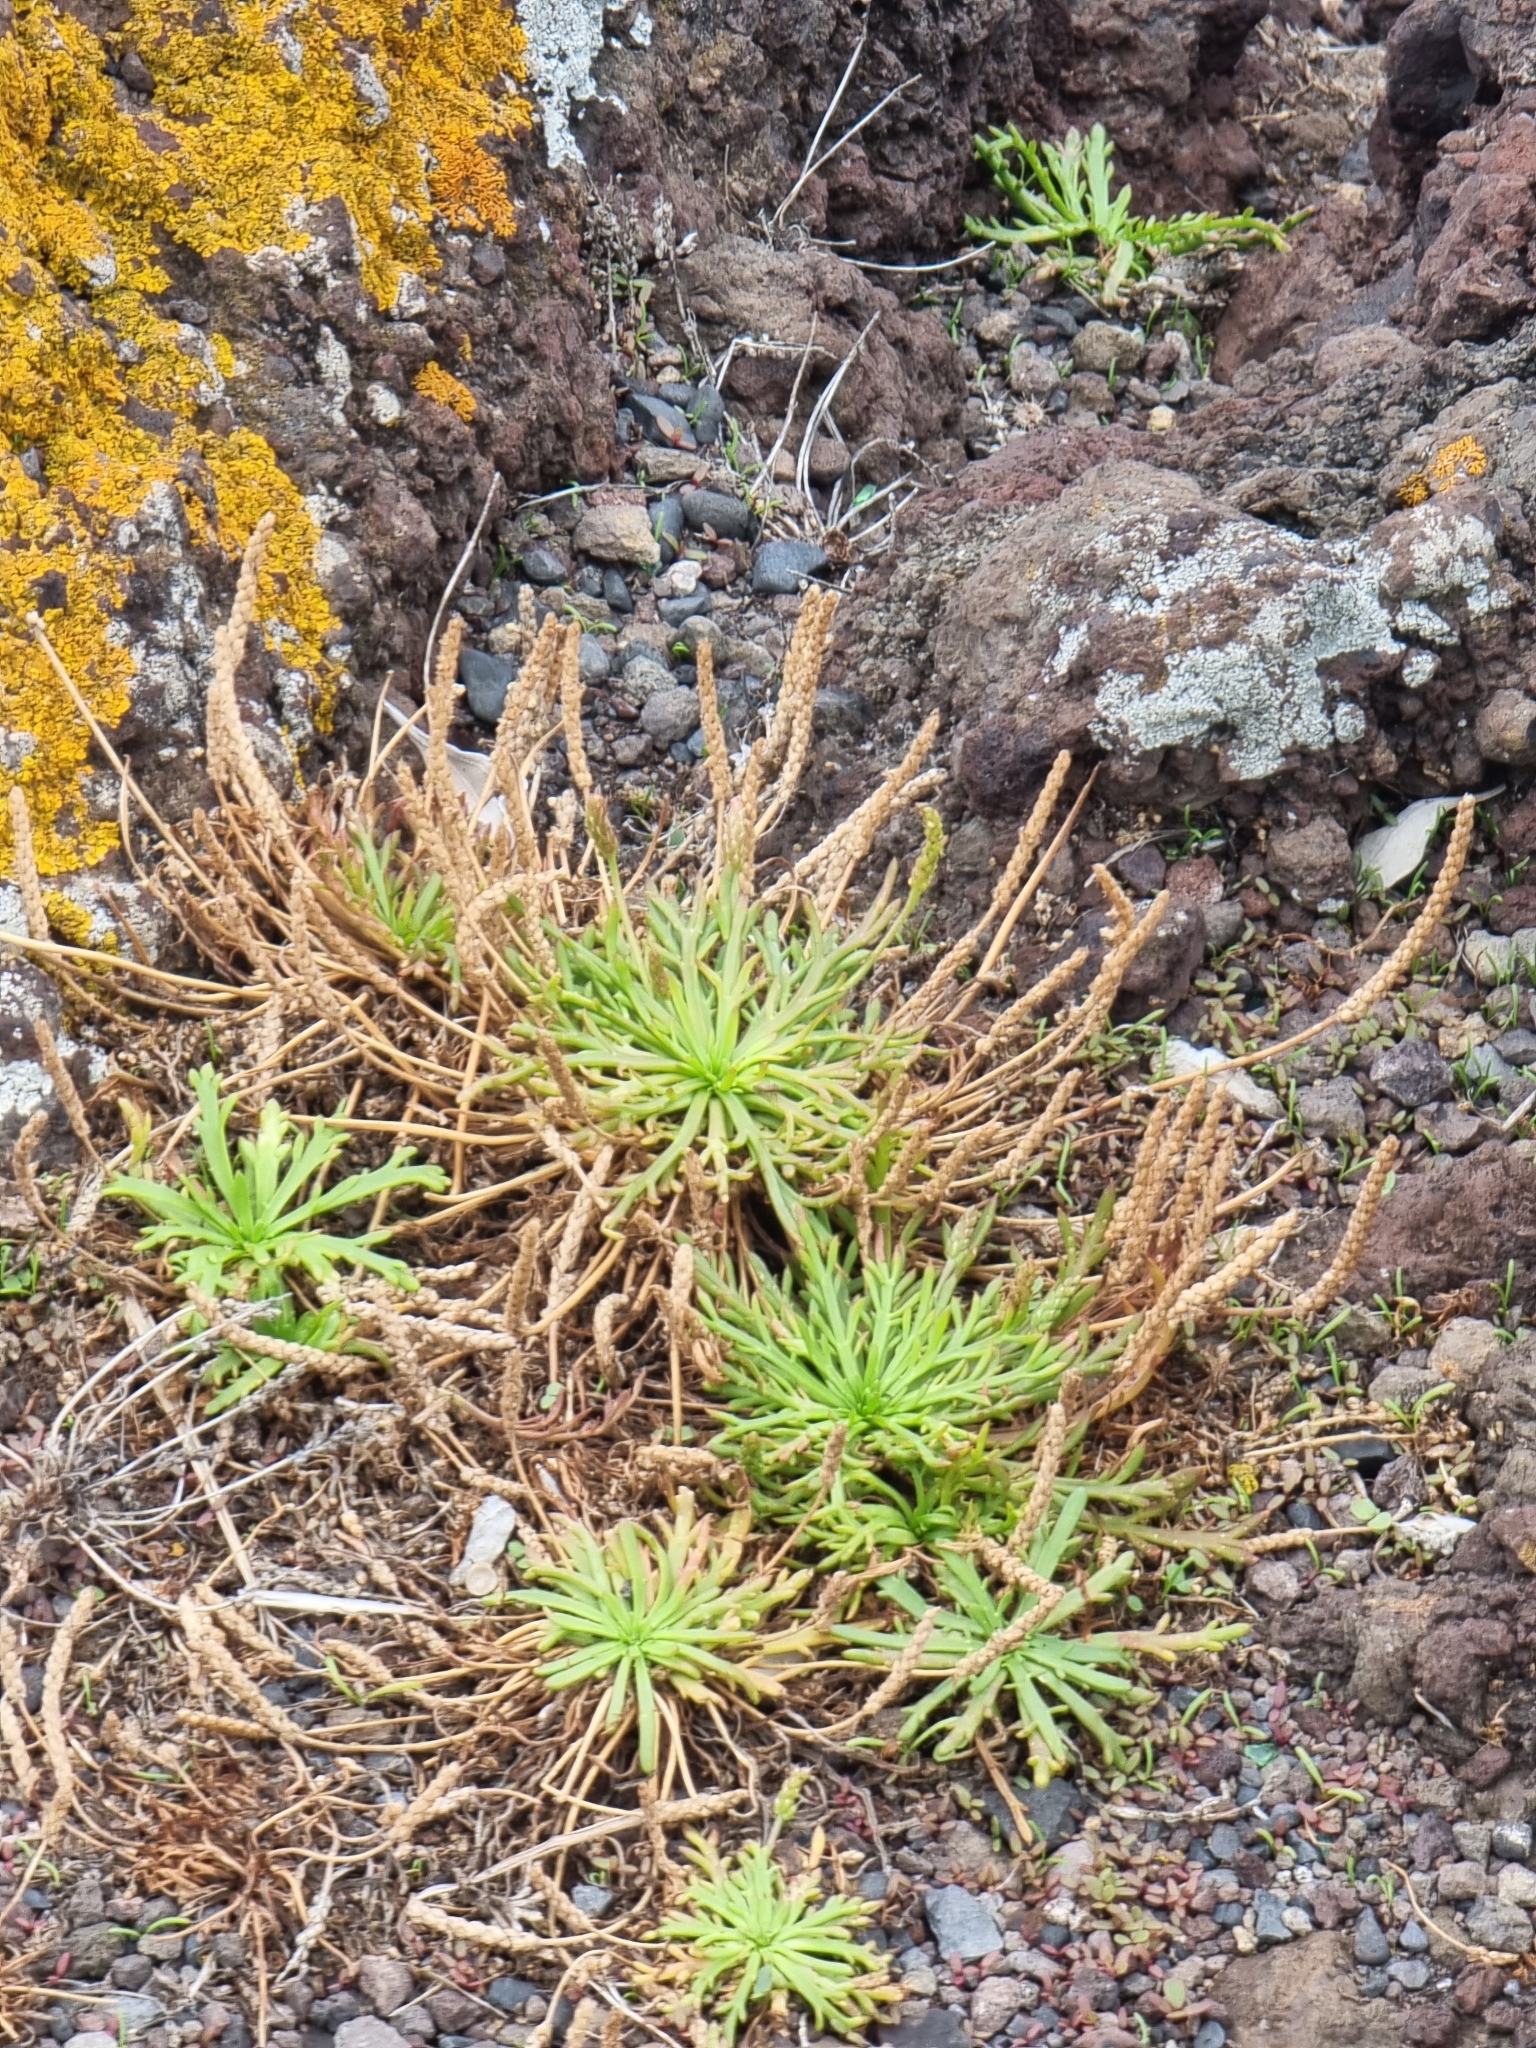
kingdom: Plantae
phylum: Tracheophyta
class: Magnoliopsida
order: Lamiales
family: Plantaginaceae
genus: Plantago
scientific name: Plantago coronopus
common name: Buck's-horn plantain
